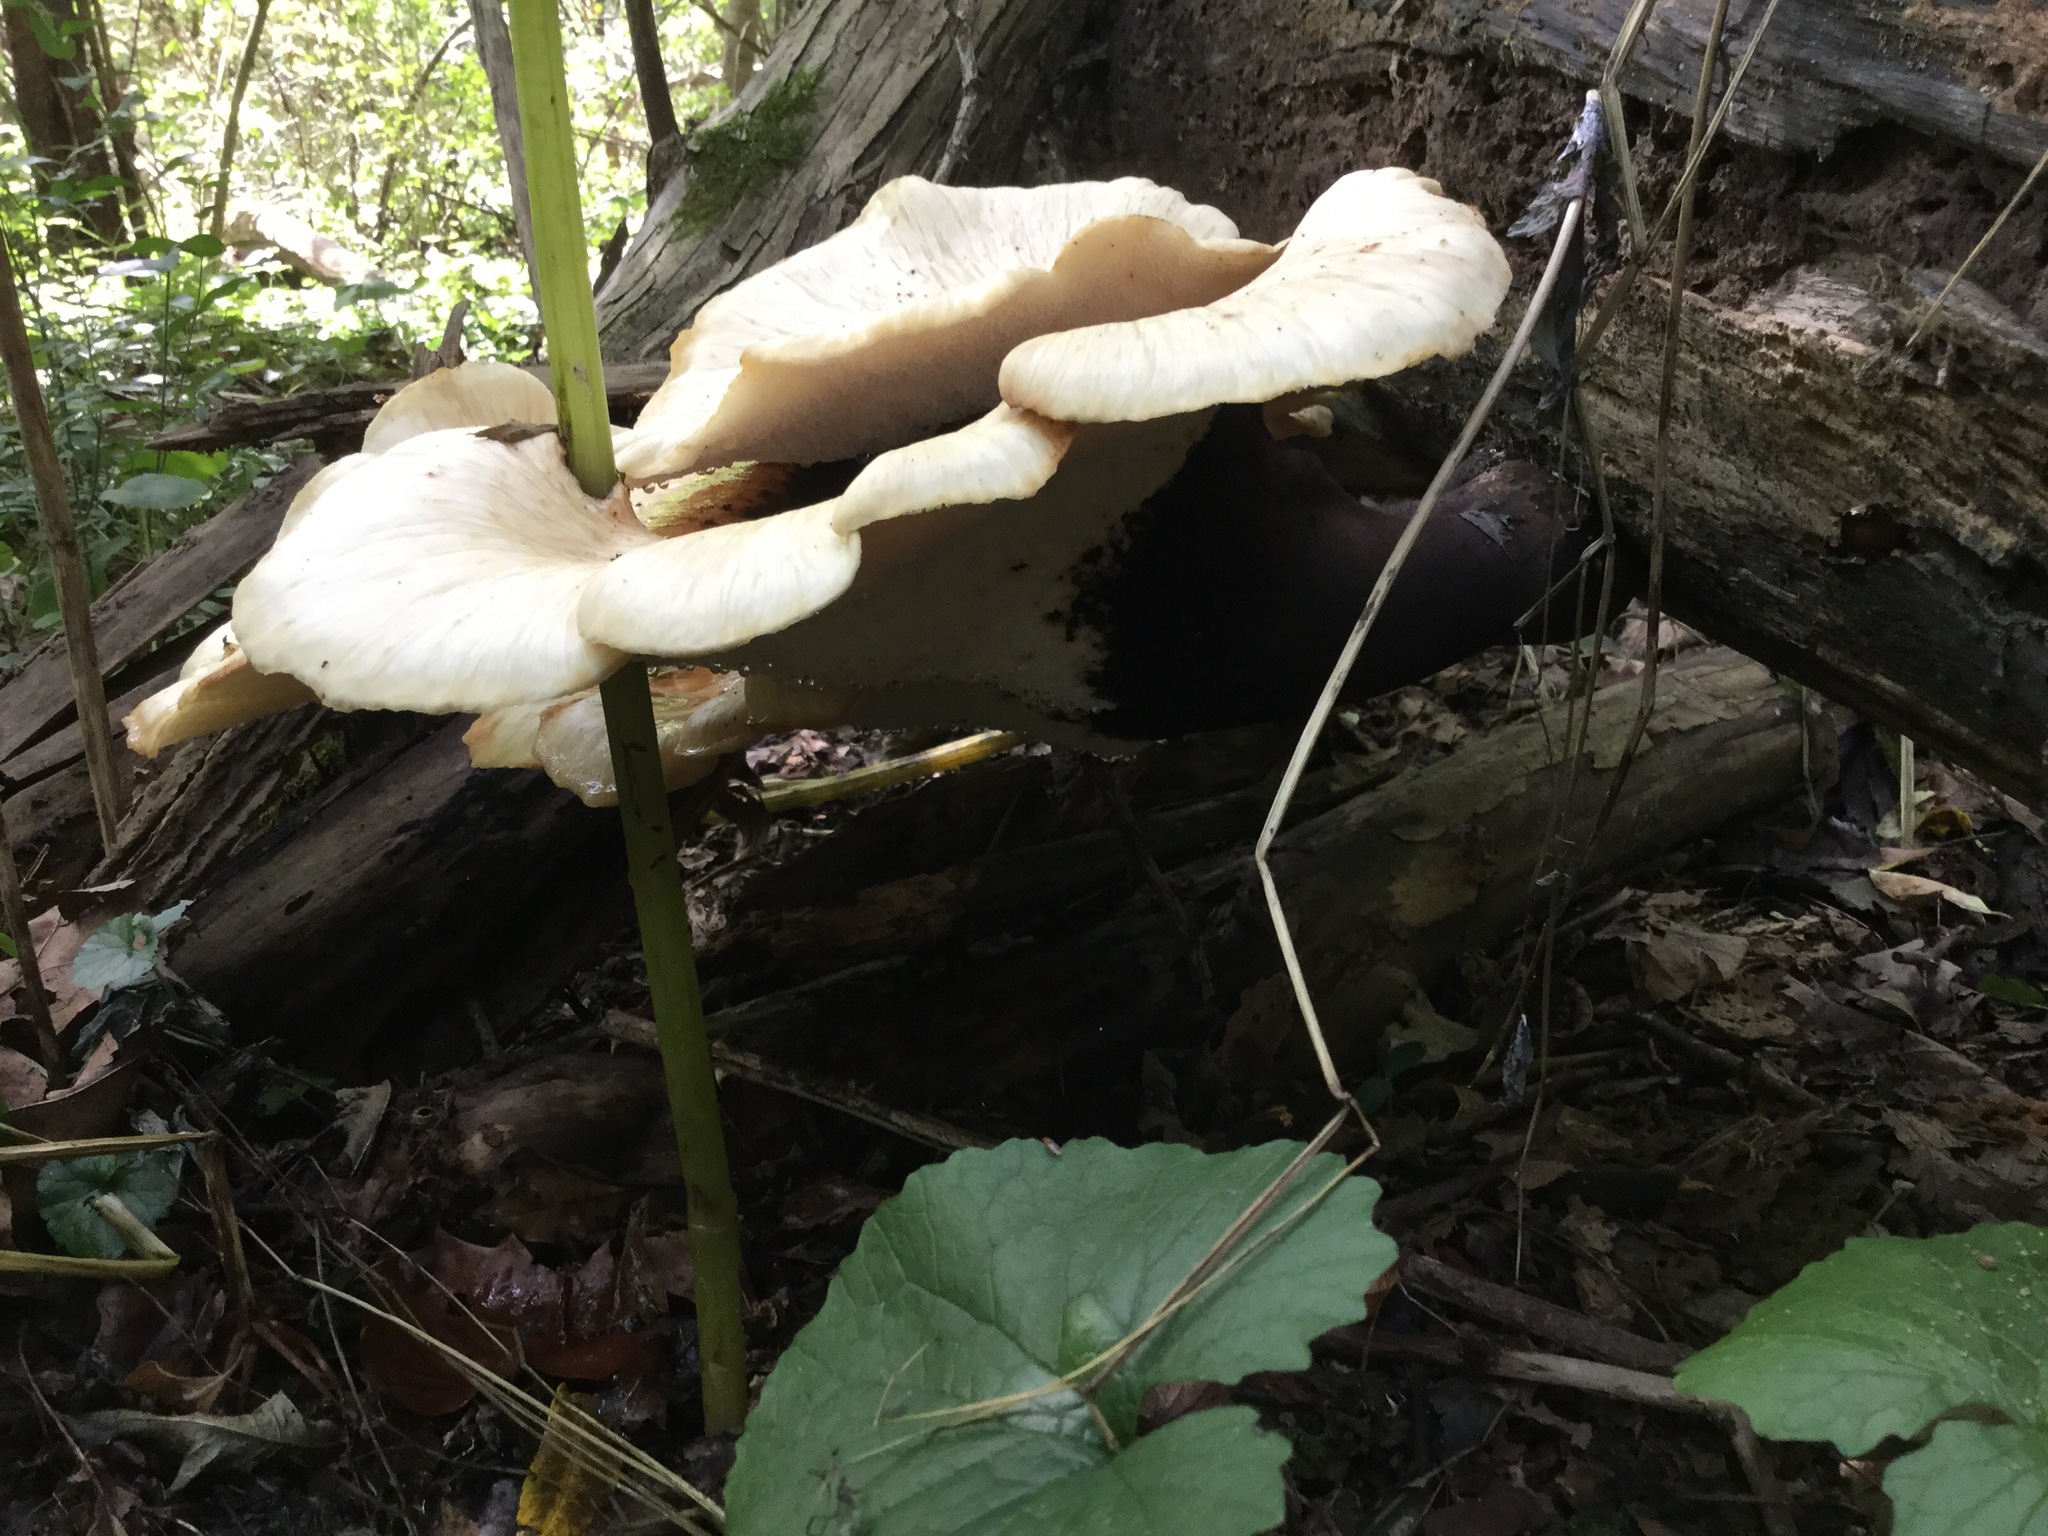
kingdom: Fungi
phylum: Basidiomycota
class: Agaricomycetes
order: Polyporales
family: Polyporaceae
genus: Cerioporus
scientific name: Cerioporus squamosus
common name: Dryad's saddle
